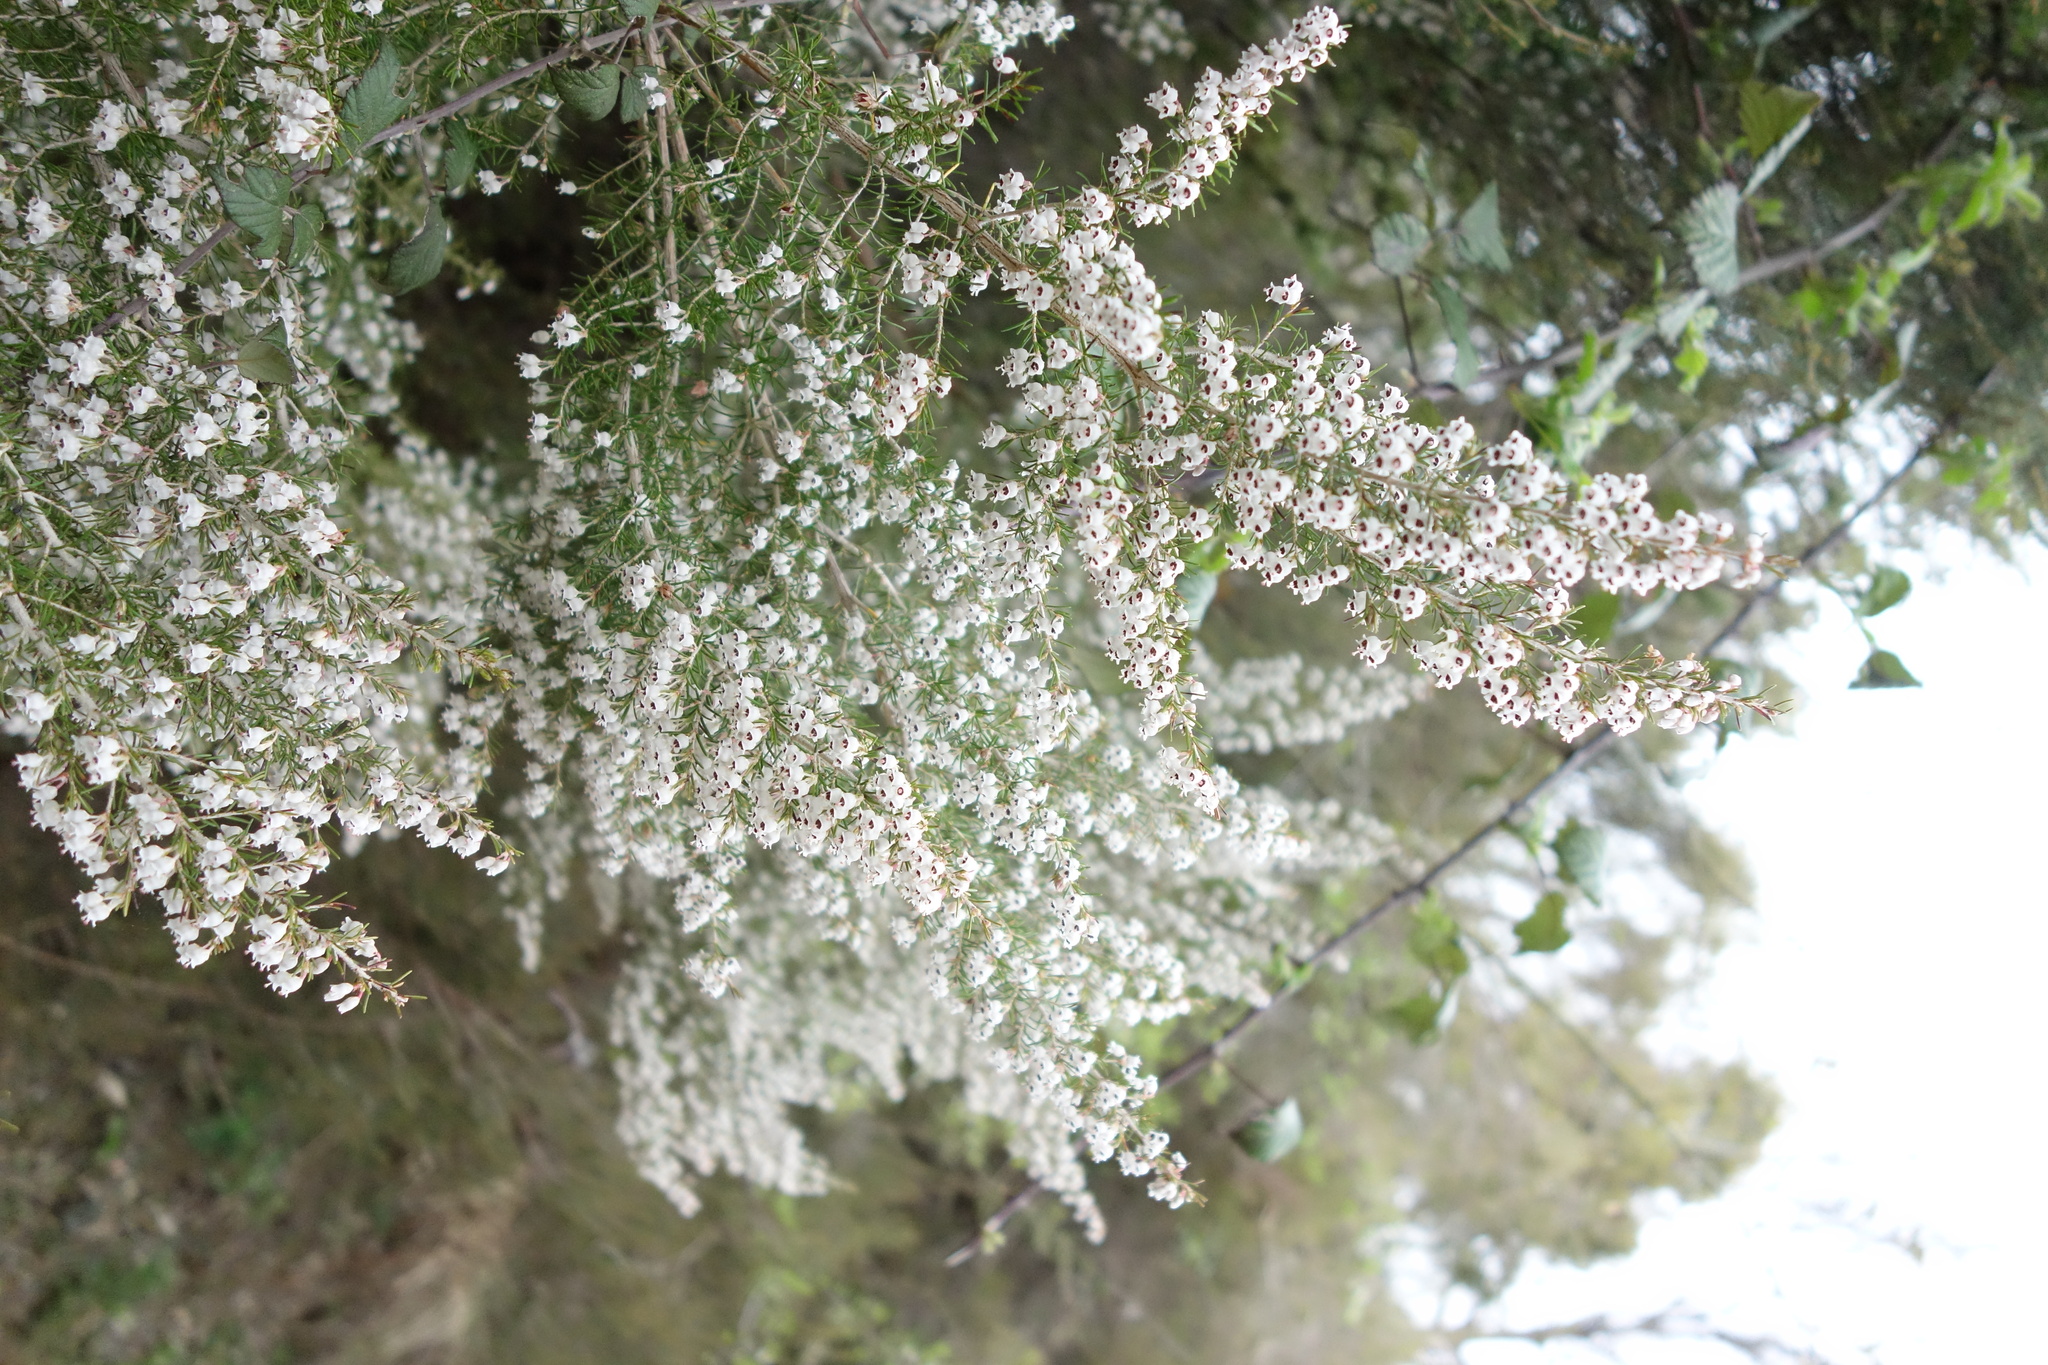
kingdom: Plantae
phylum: Tracheophyta
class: Magnoliopsida
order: Ericales
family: Ericaceae
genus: Erica
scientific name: Erica arborea
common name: Tree heath
